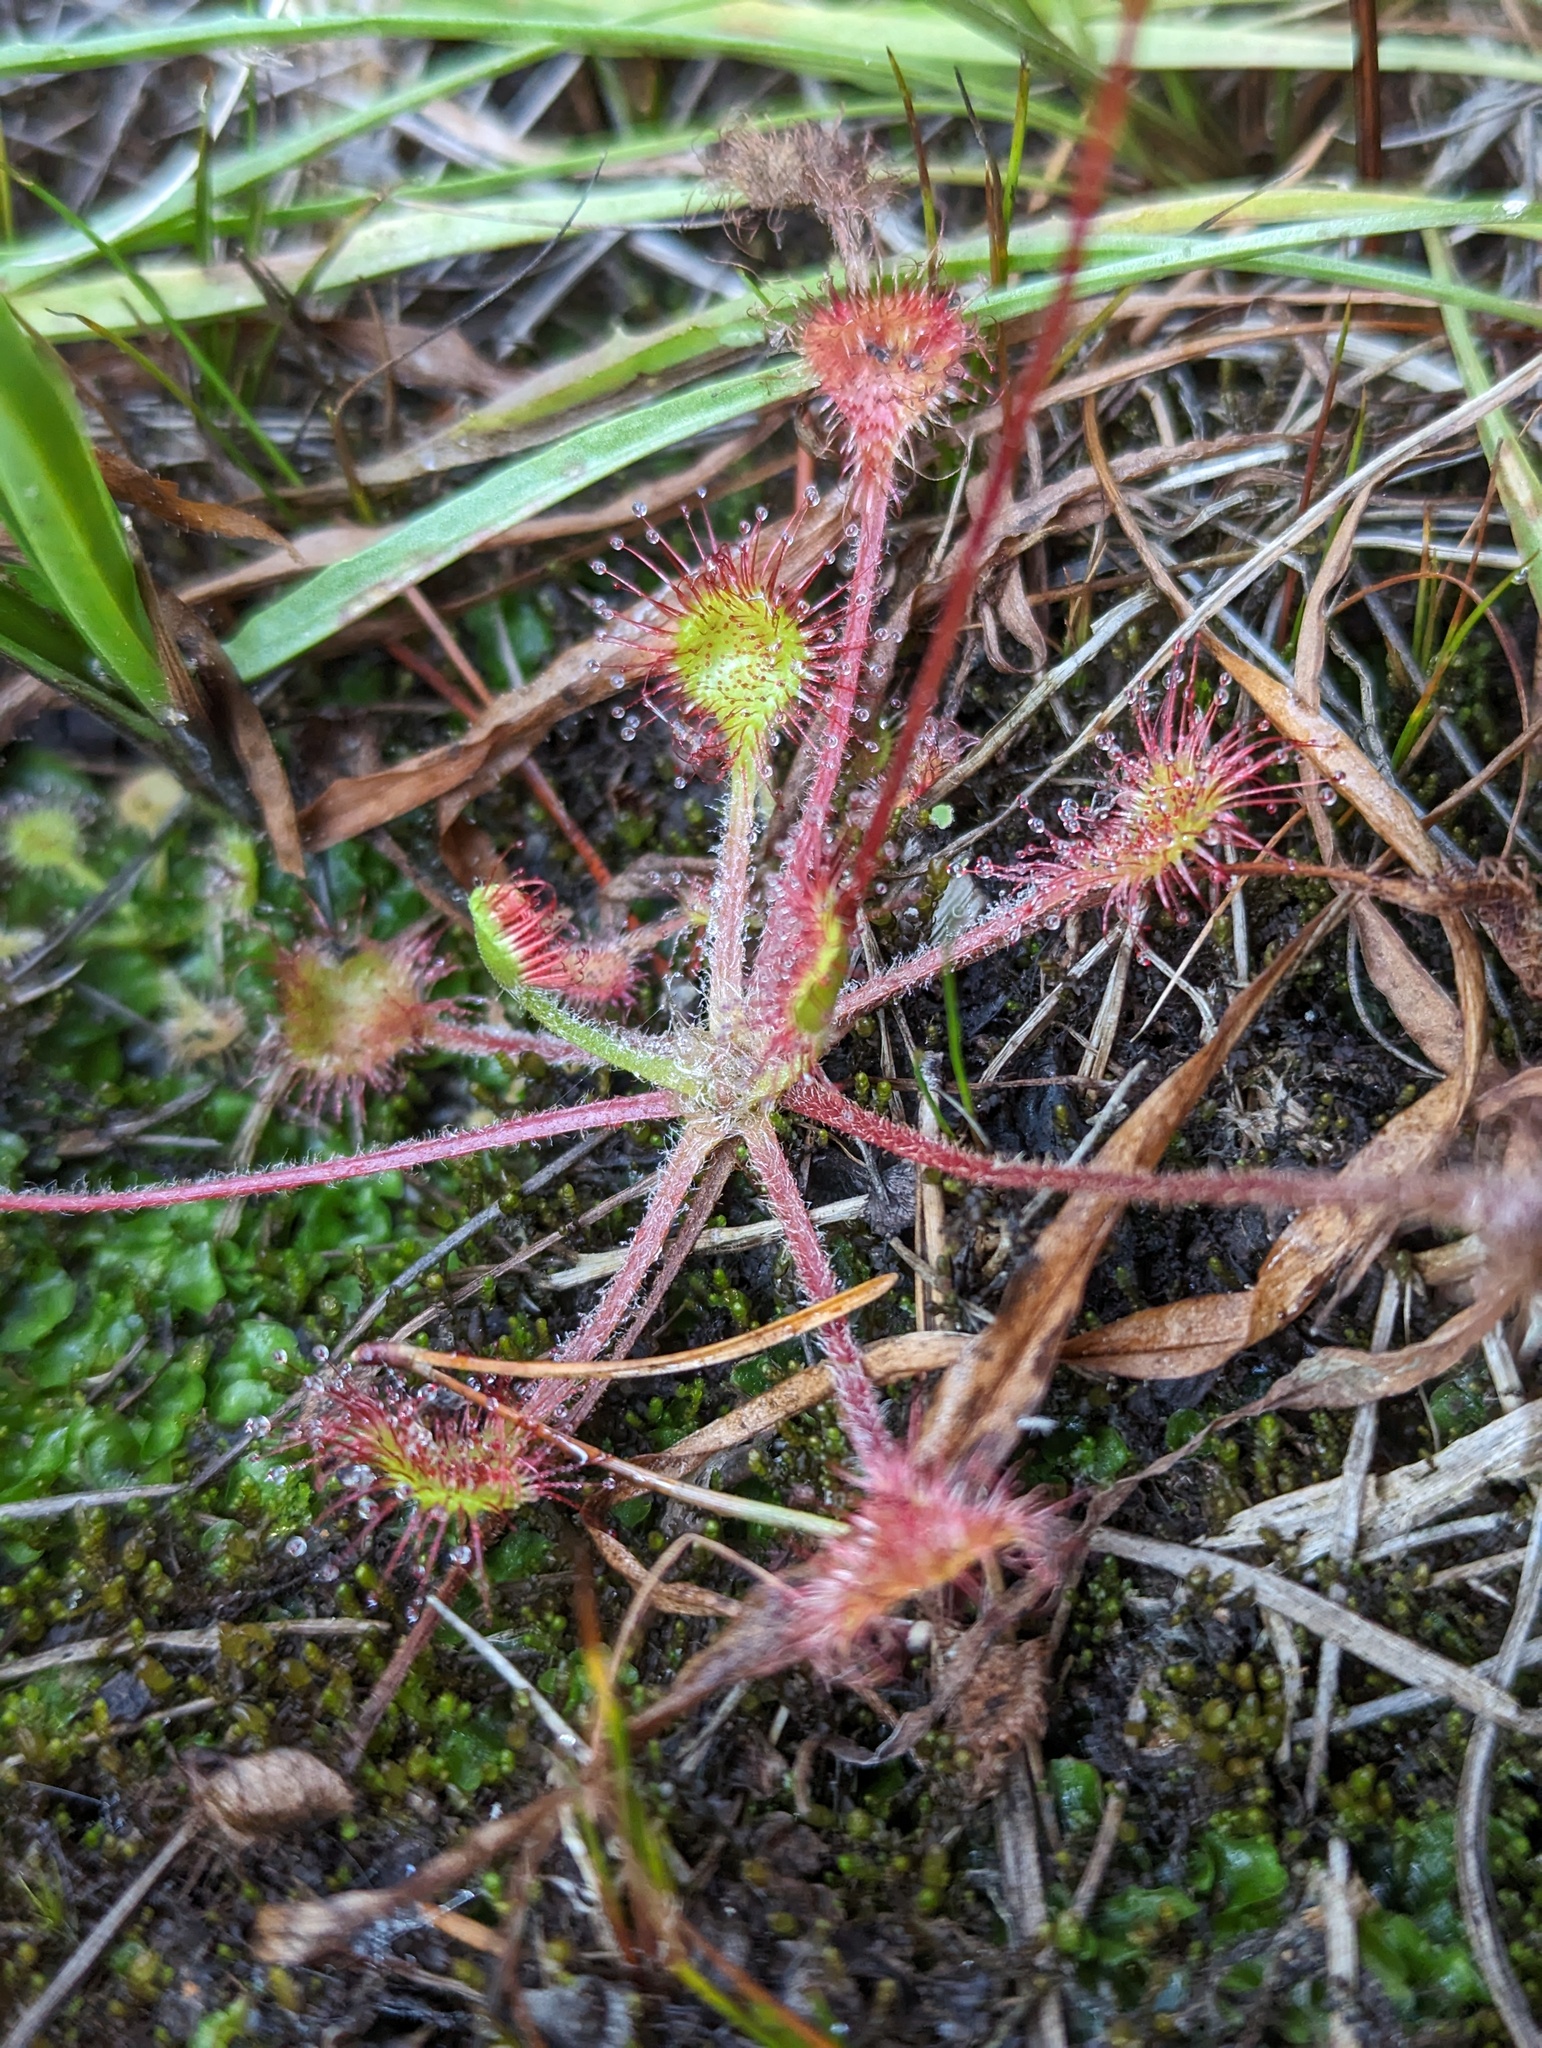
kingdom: Plantae
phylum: Tracheophyta
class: Magnoliopsida
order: Caryophyllales
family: Droseraceae
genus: Drosera
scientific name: Drosera rotundifolia
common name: Round-leaved sundew
